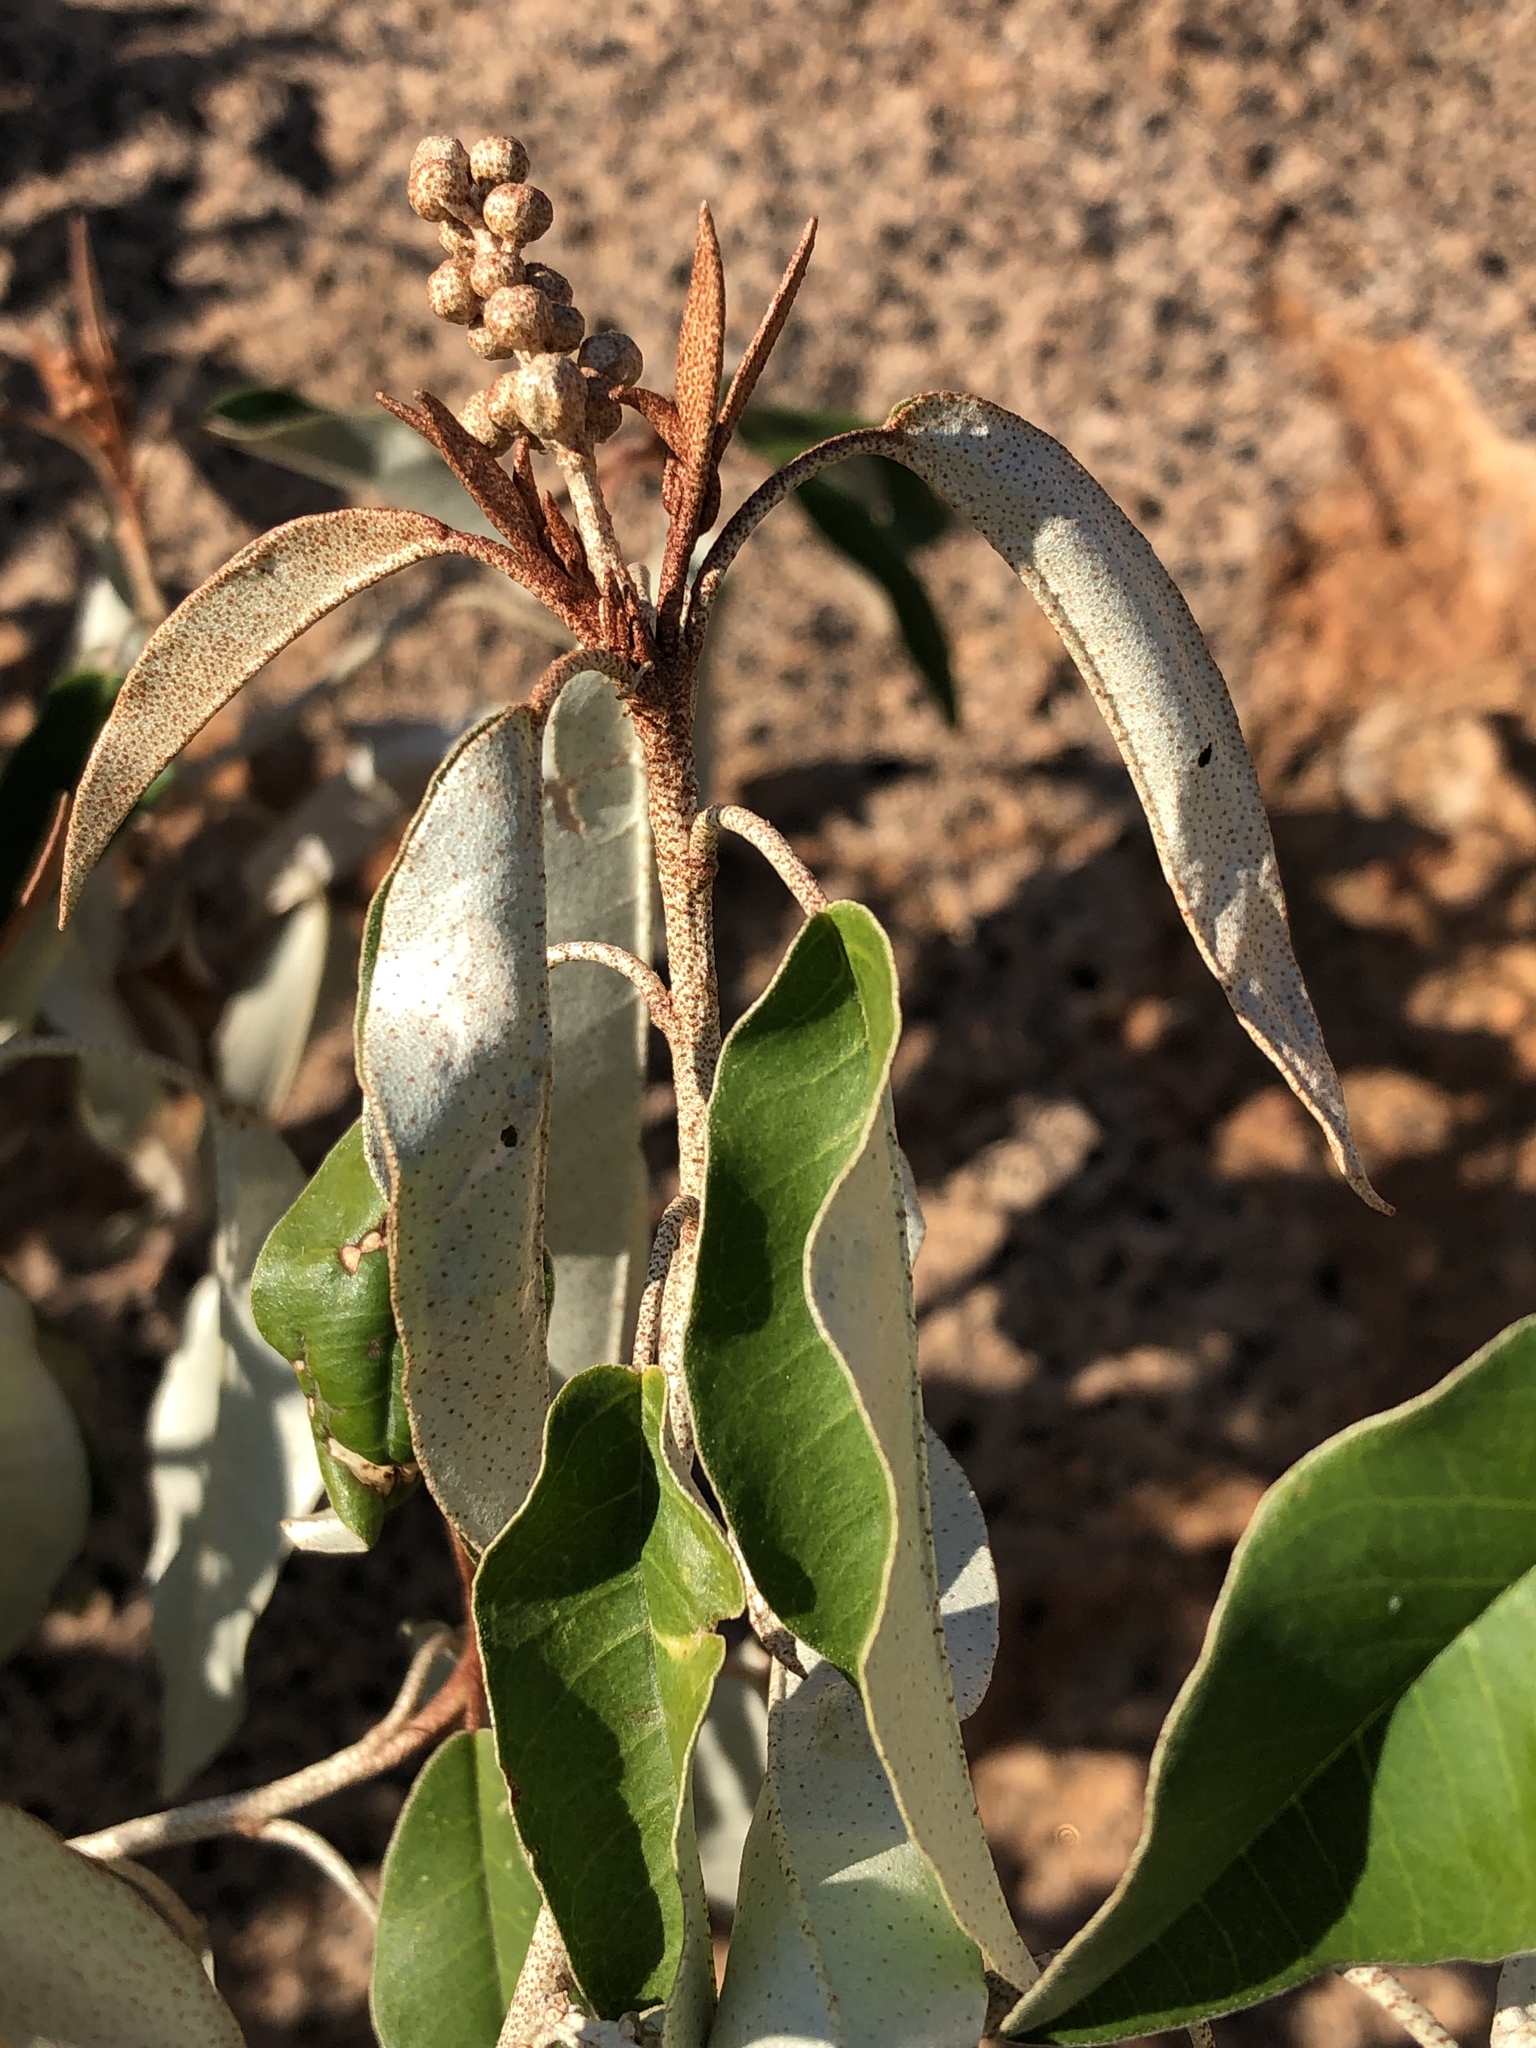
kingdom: Plantae
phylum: Tracheophyta
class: Magnoliopsida
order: Malpighiales
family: Euphorbiaceae
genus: Croton
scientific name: Croton gratissimus
